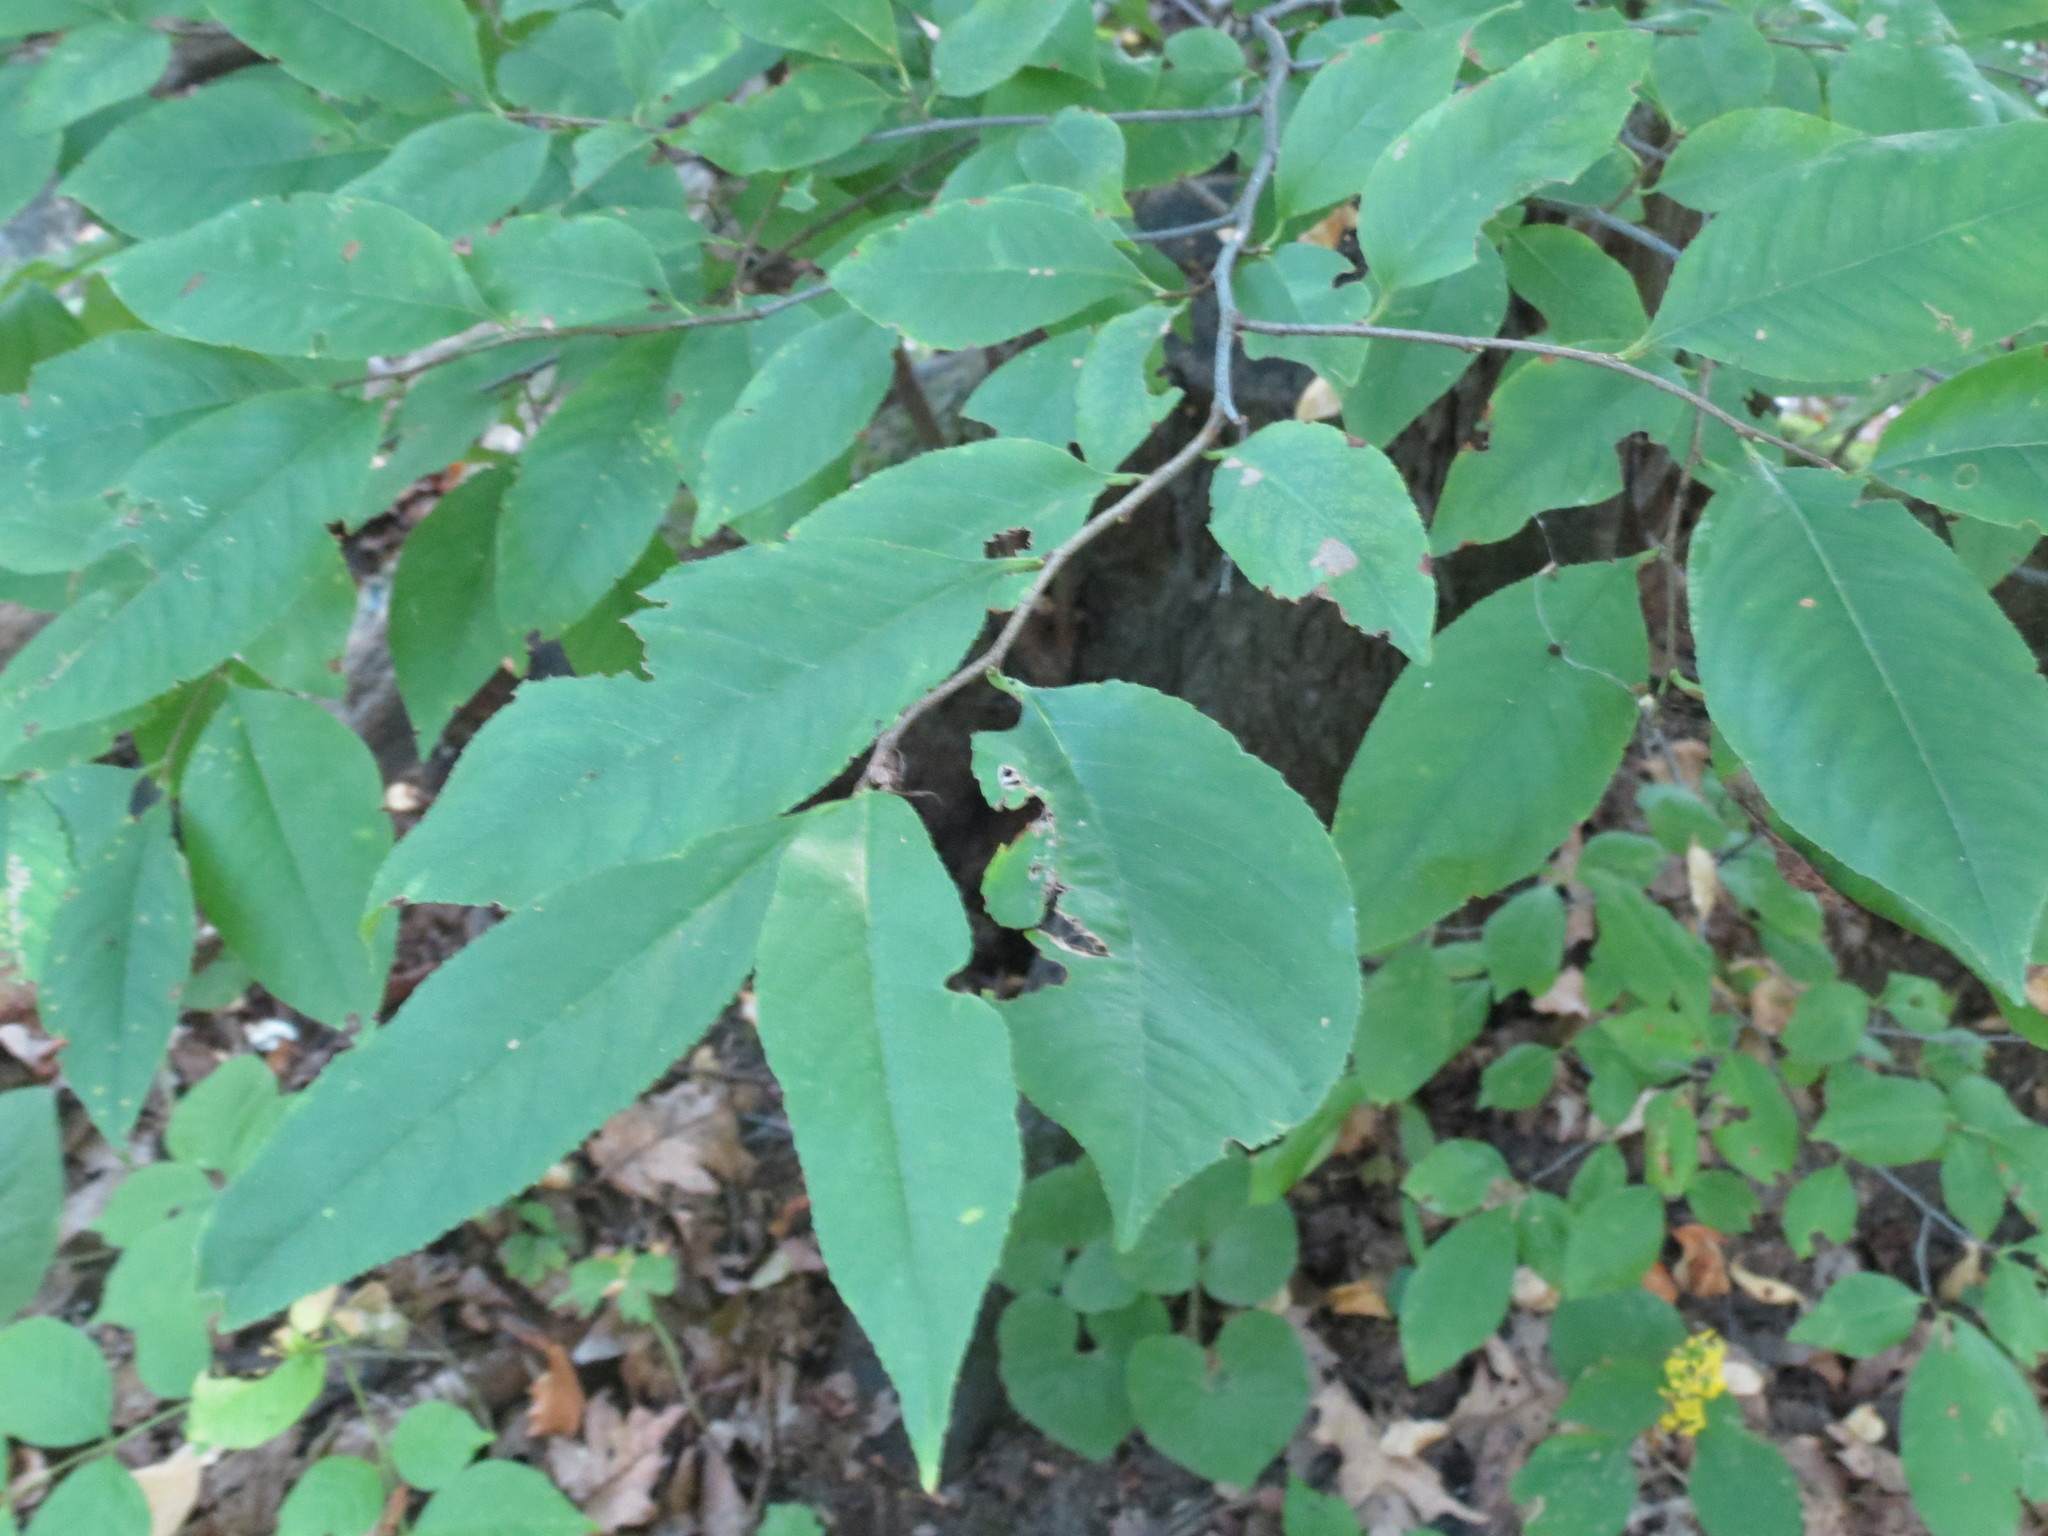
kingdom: Plantae
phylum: Tracheophyta
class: Magnoliopsida
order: Rosales
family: Rosaceae
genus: Prunus
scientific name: Prunus serotina
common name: Black cherry
